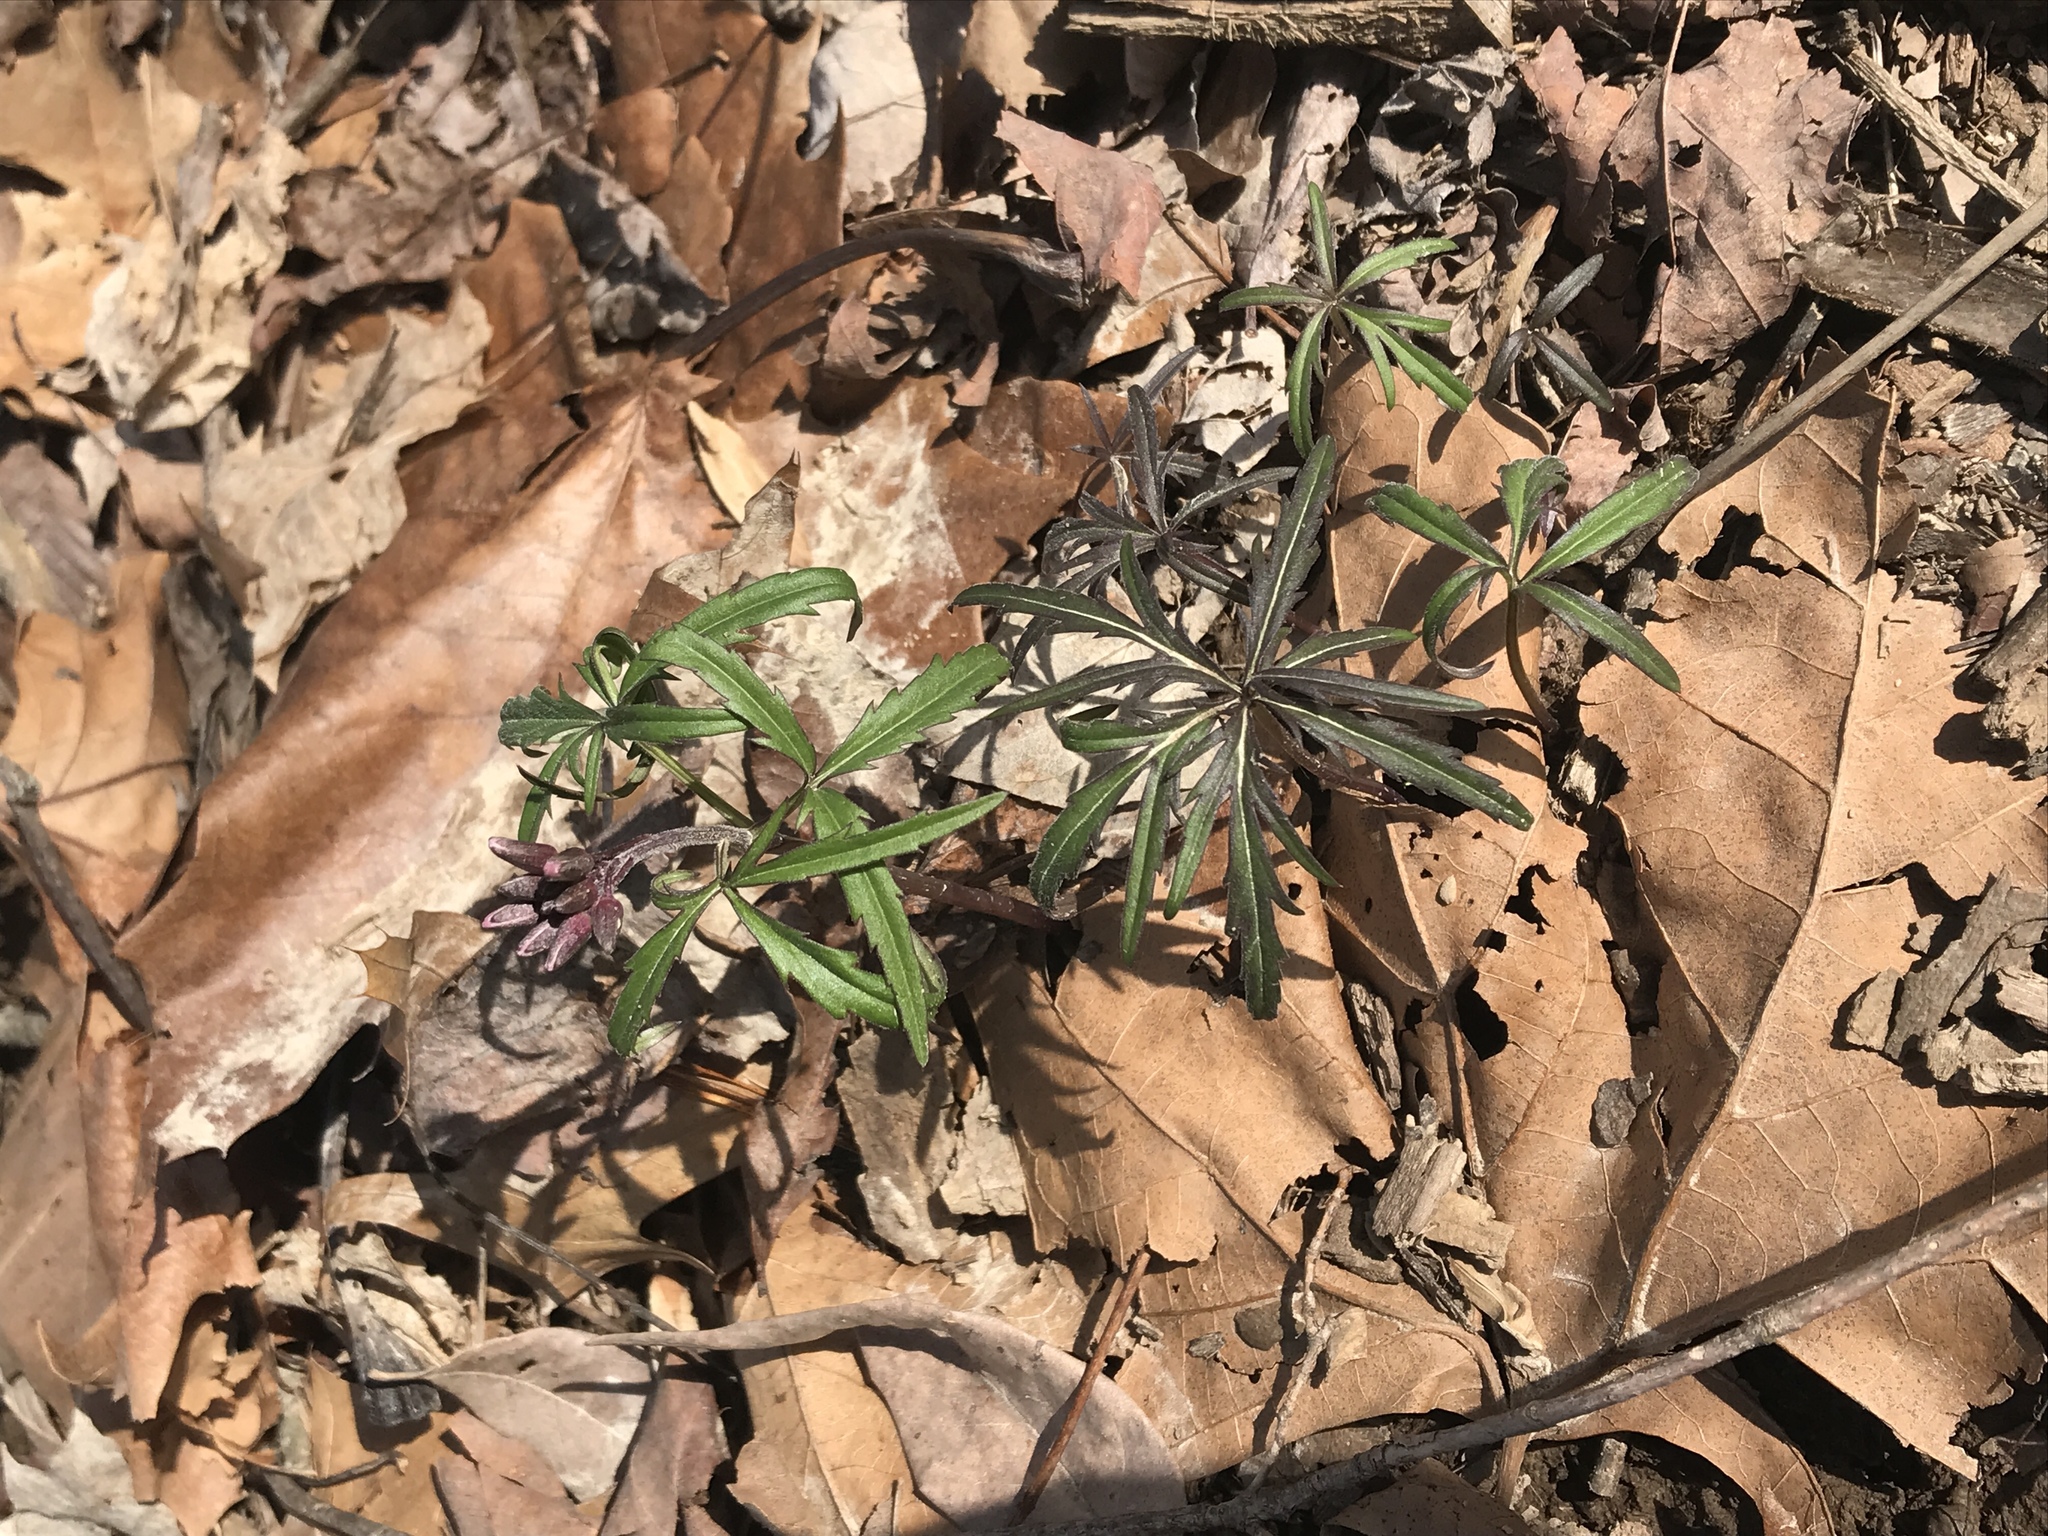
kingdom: Plantae
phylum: Tracheophyta
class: Magnoliopsida
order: Brassicales
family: Brassicaceae
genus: Cardamine
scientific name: Cardamine concatenata
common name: Cut-leaf toothcup
